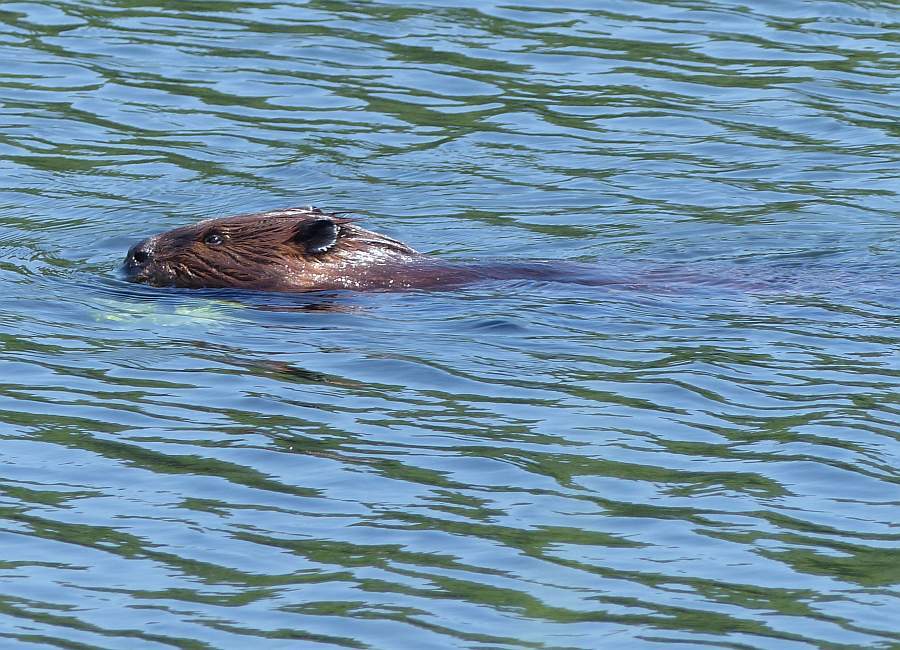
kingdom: Animalia
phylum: Chordata
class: Mammalia
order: Rodentia
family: Castoridae
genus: Castor
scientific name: Castor canadensis
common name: American beaver
